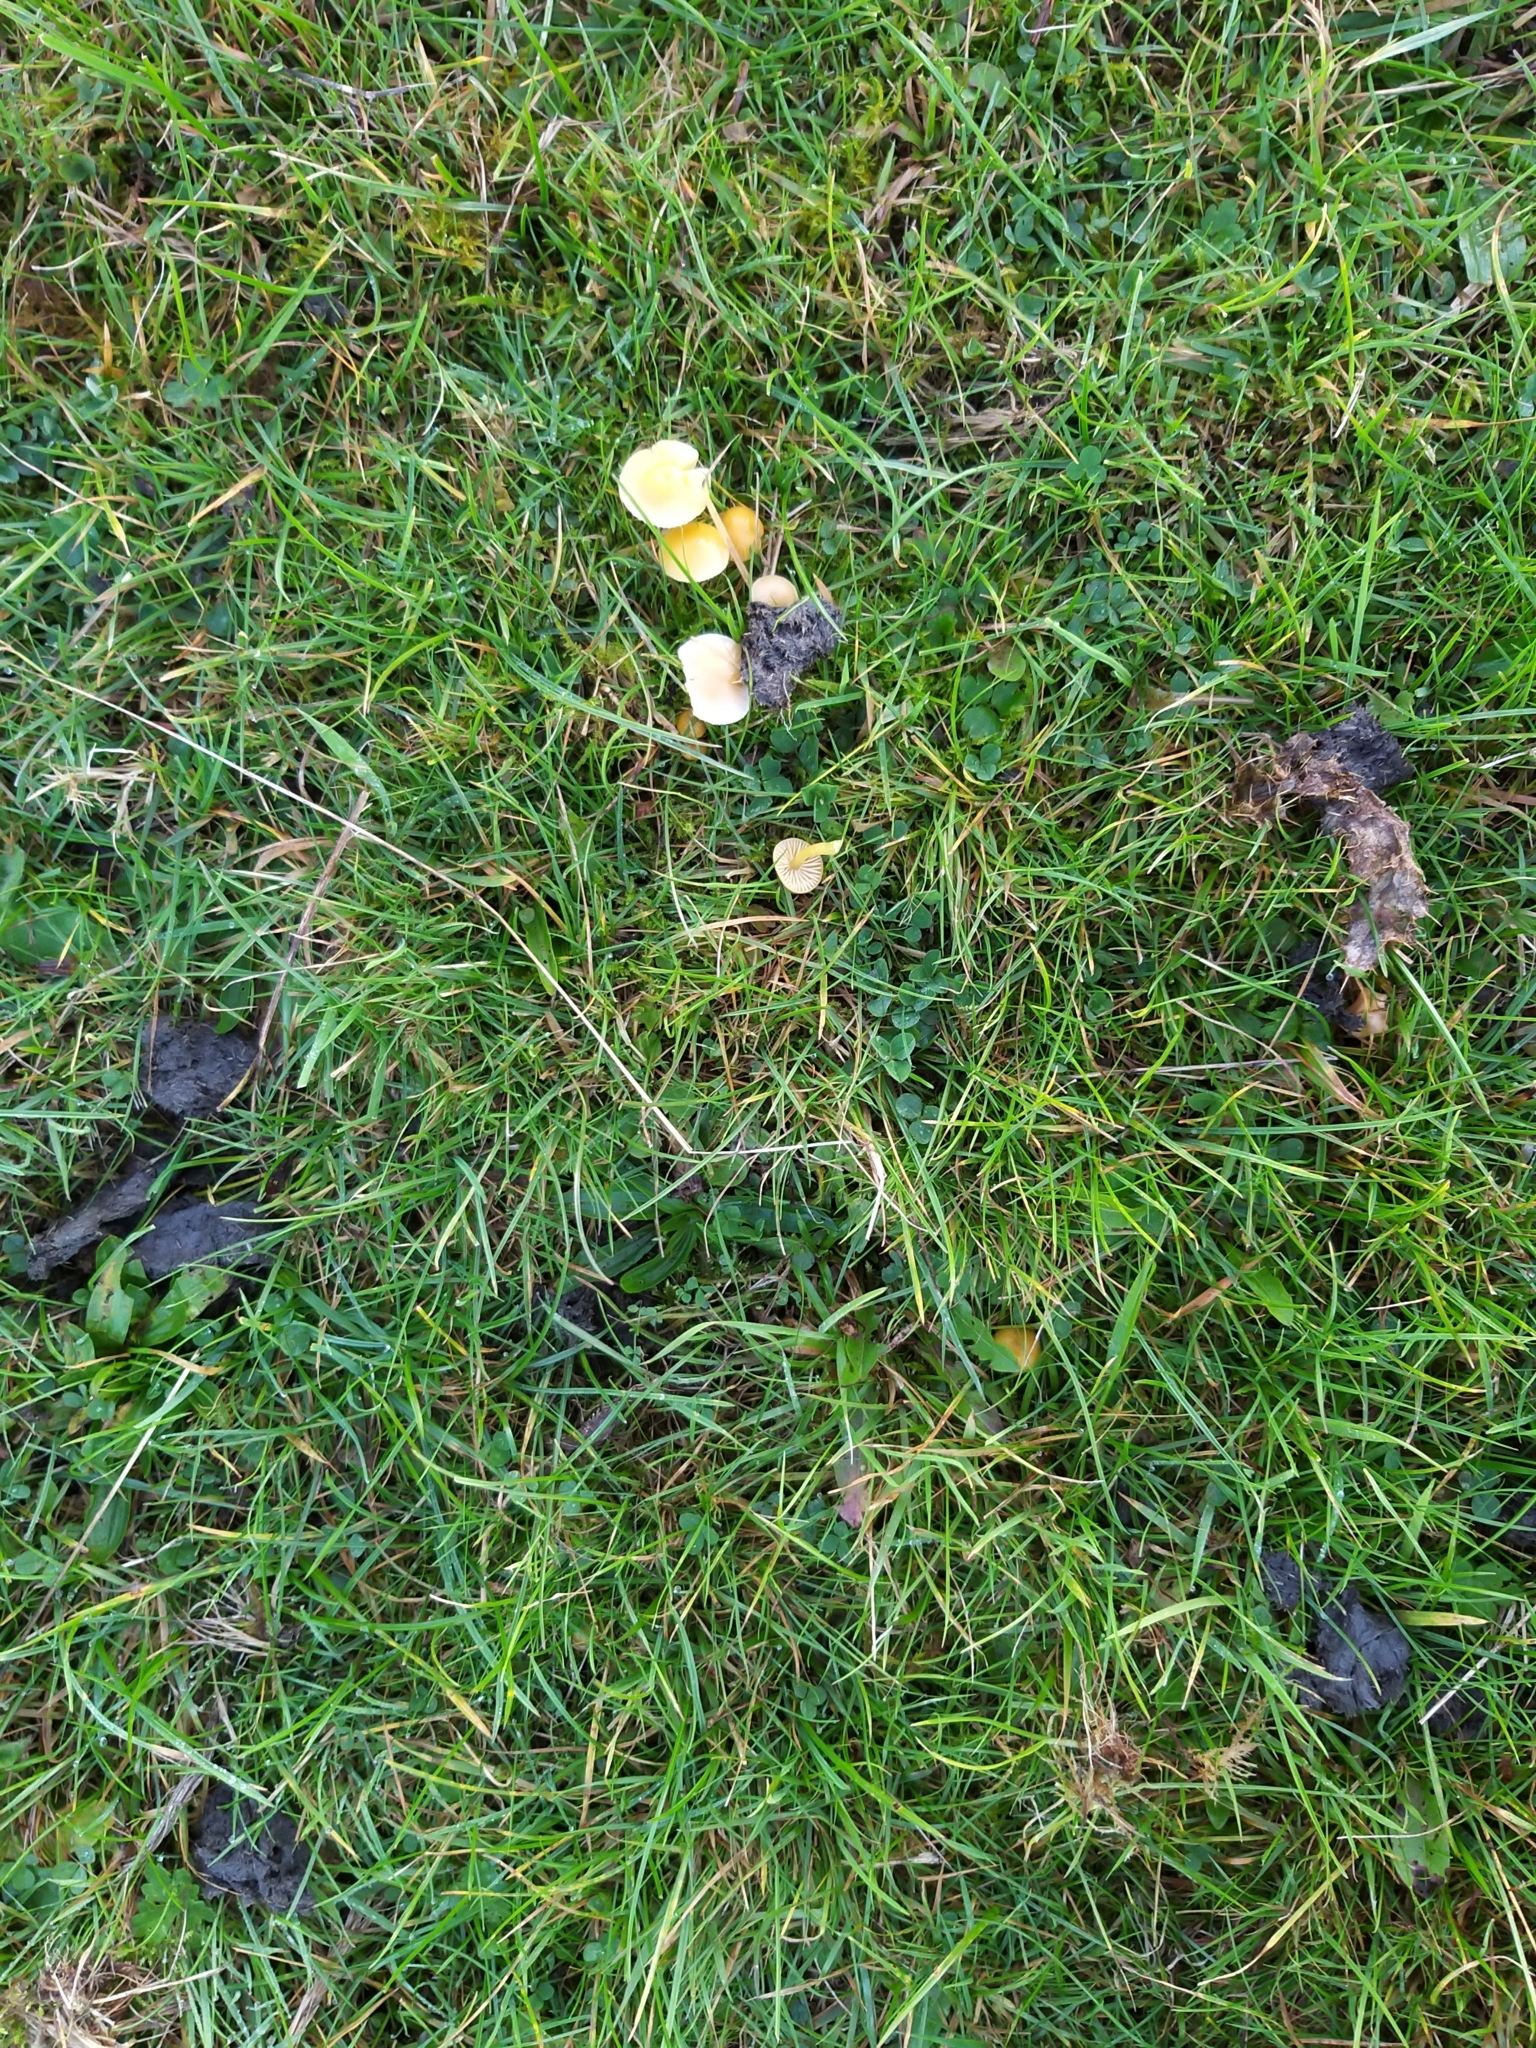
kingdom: Fungi
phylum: Basidiomycota
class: Agaricomycetes
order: Agaricales
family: Hygrophoraceae
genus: Gliophorus
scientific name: Gliophorus psittacinus
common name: Parrot wax-cap
